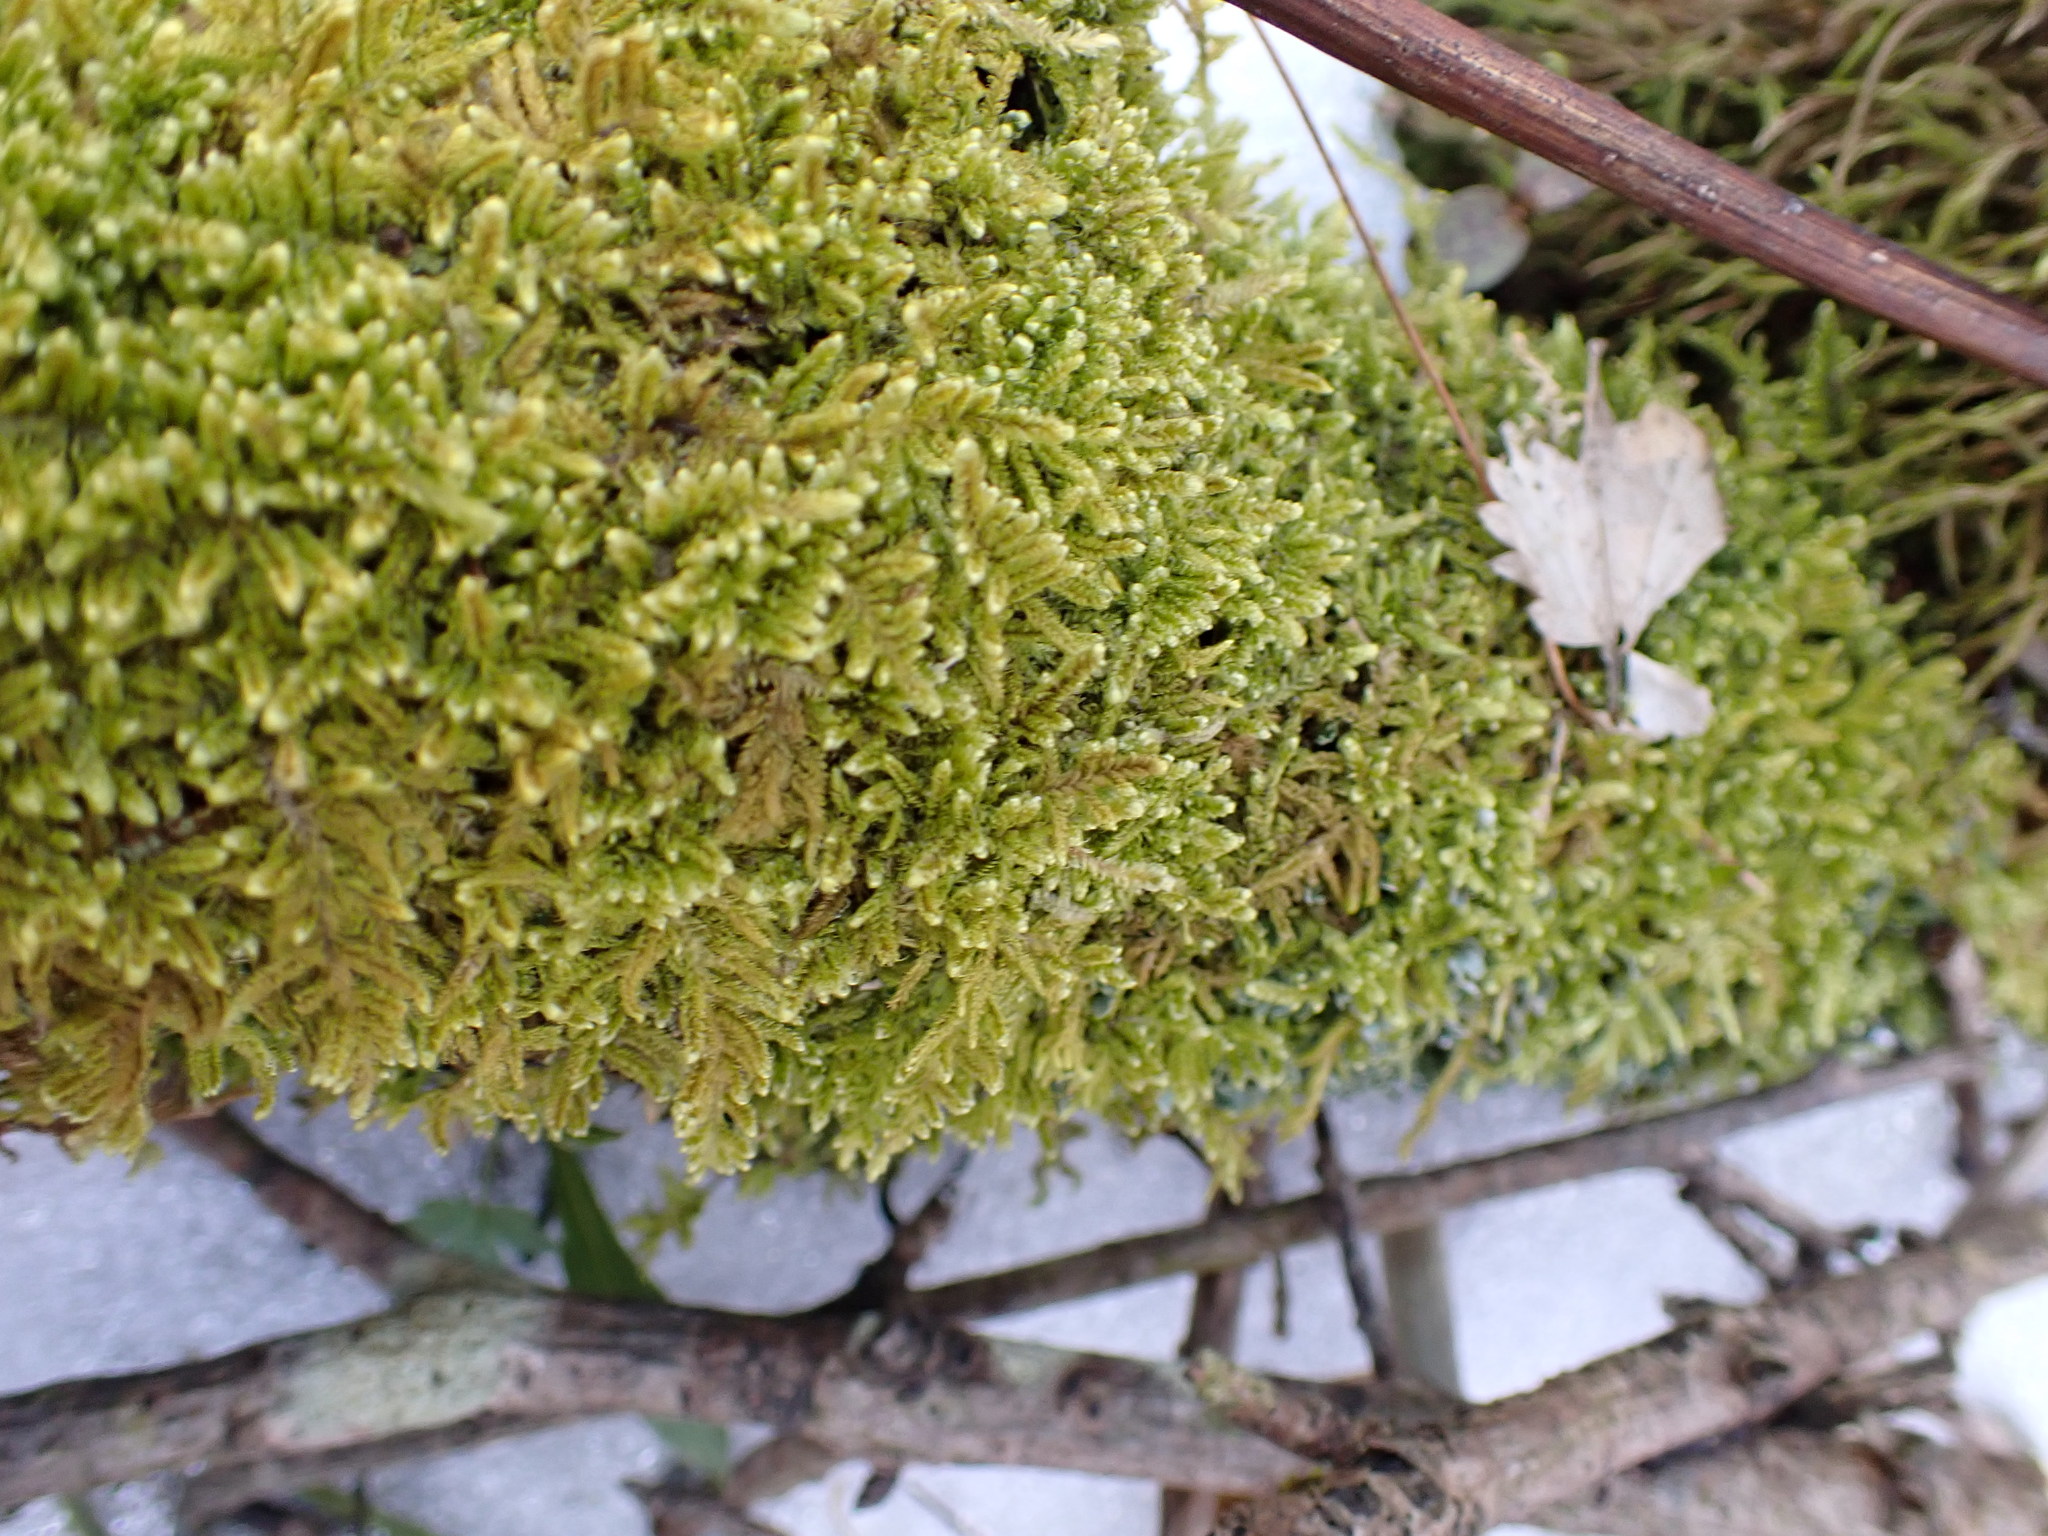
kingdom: Plantae
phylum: Bryophyta
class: Bryopsida
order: Hypnales
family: Callicladiaceae
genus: Callicladium
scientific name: Callicladium imponens
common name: Brocade moss
